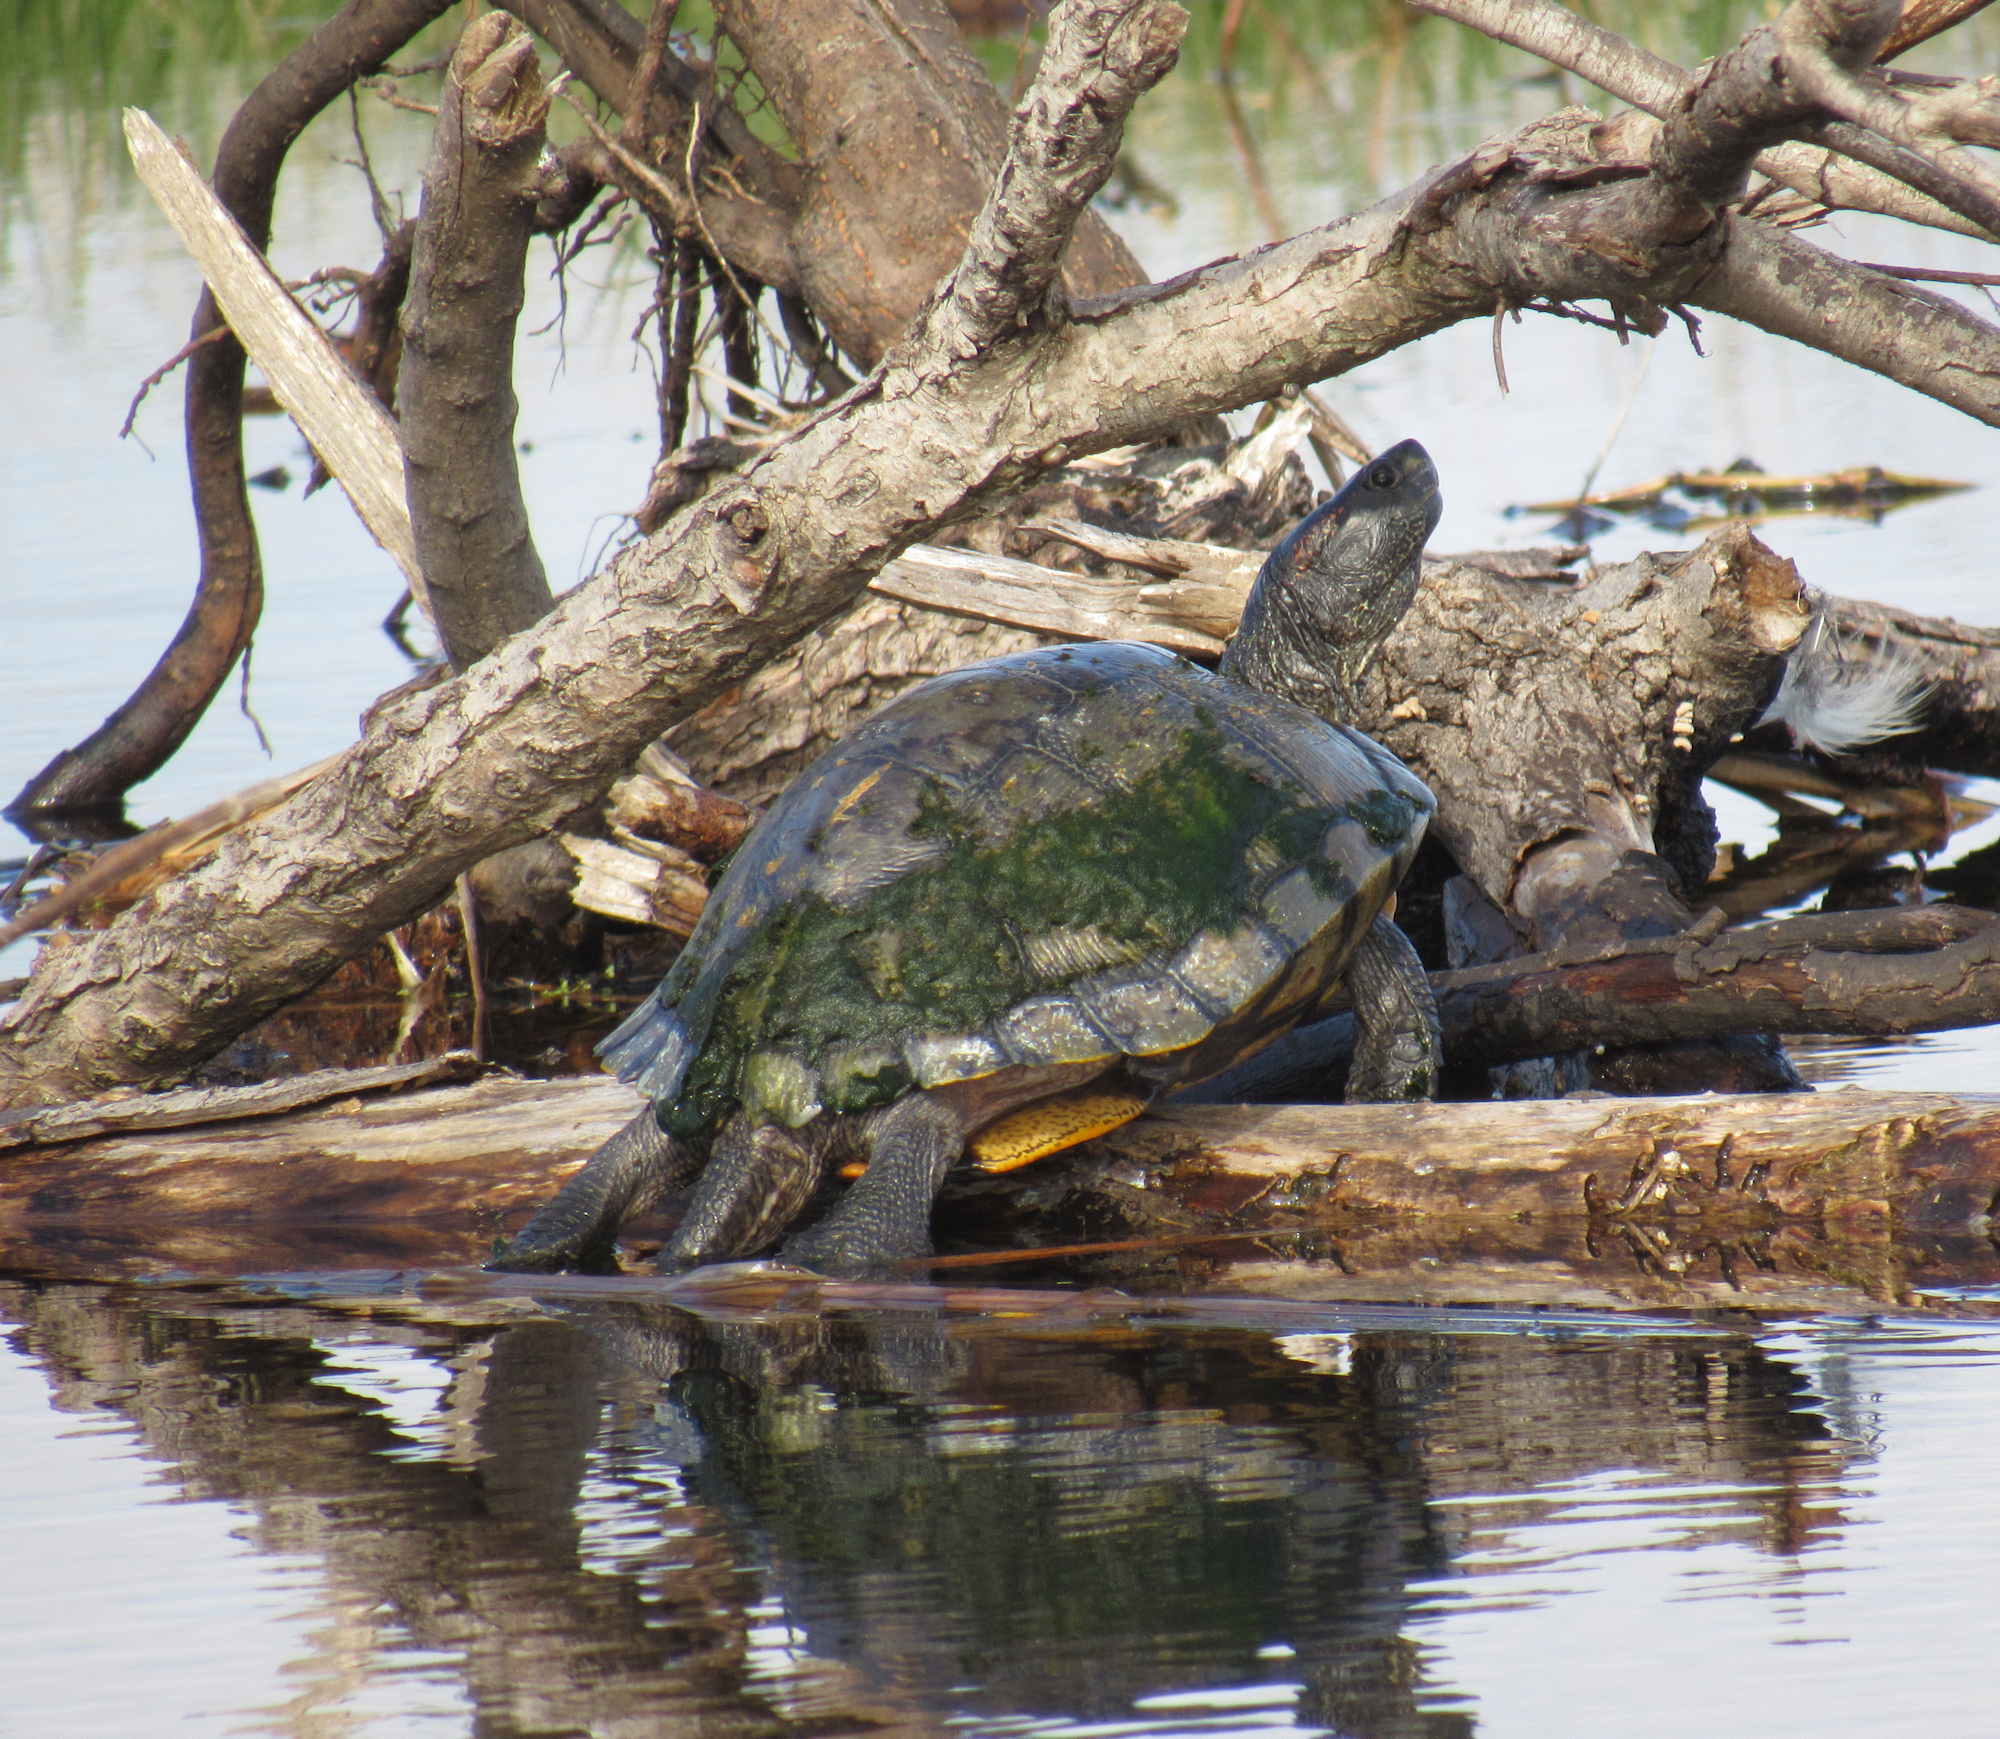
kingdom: Animalia
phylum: Chordata
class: Testudines
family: Emydidae
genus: Trachemys
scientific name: Trachemys scripta
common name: Slider
